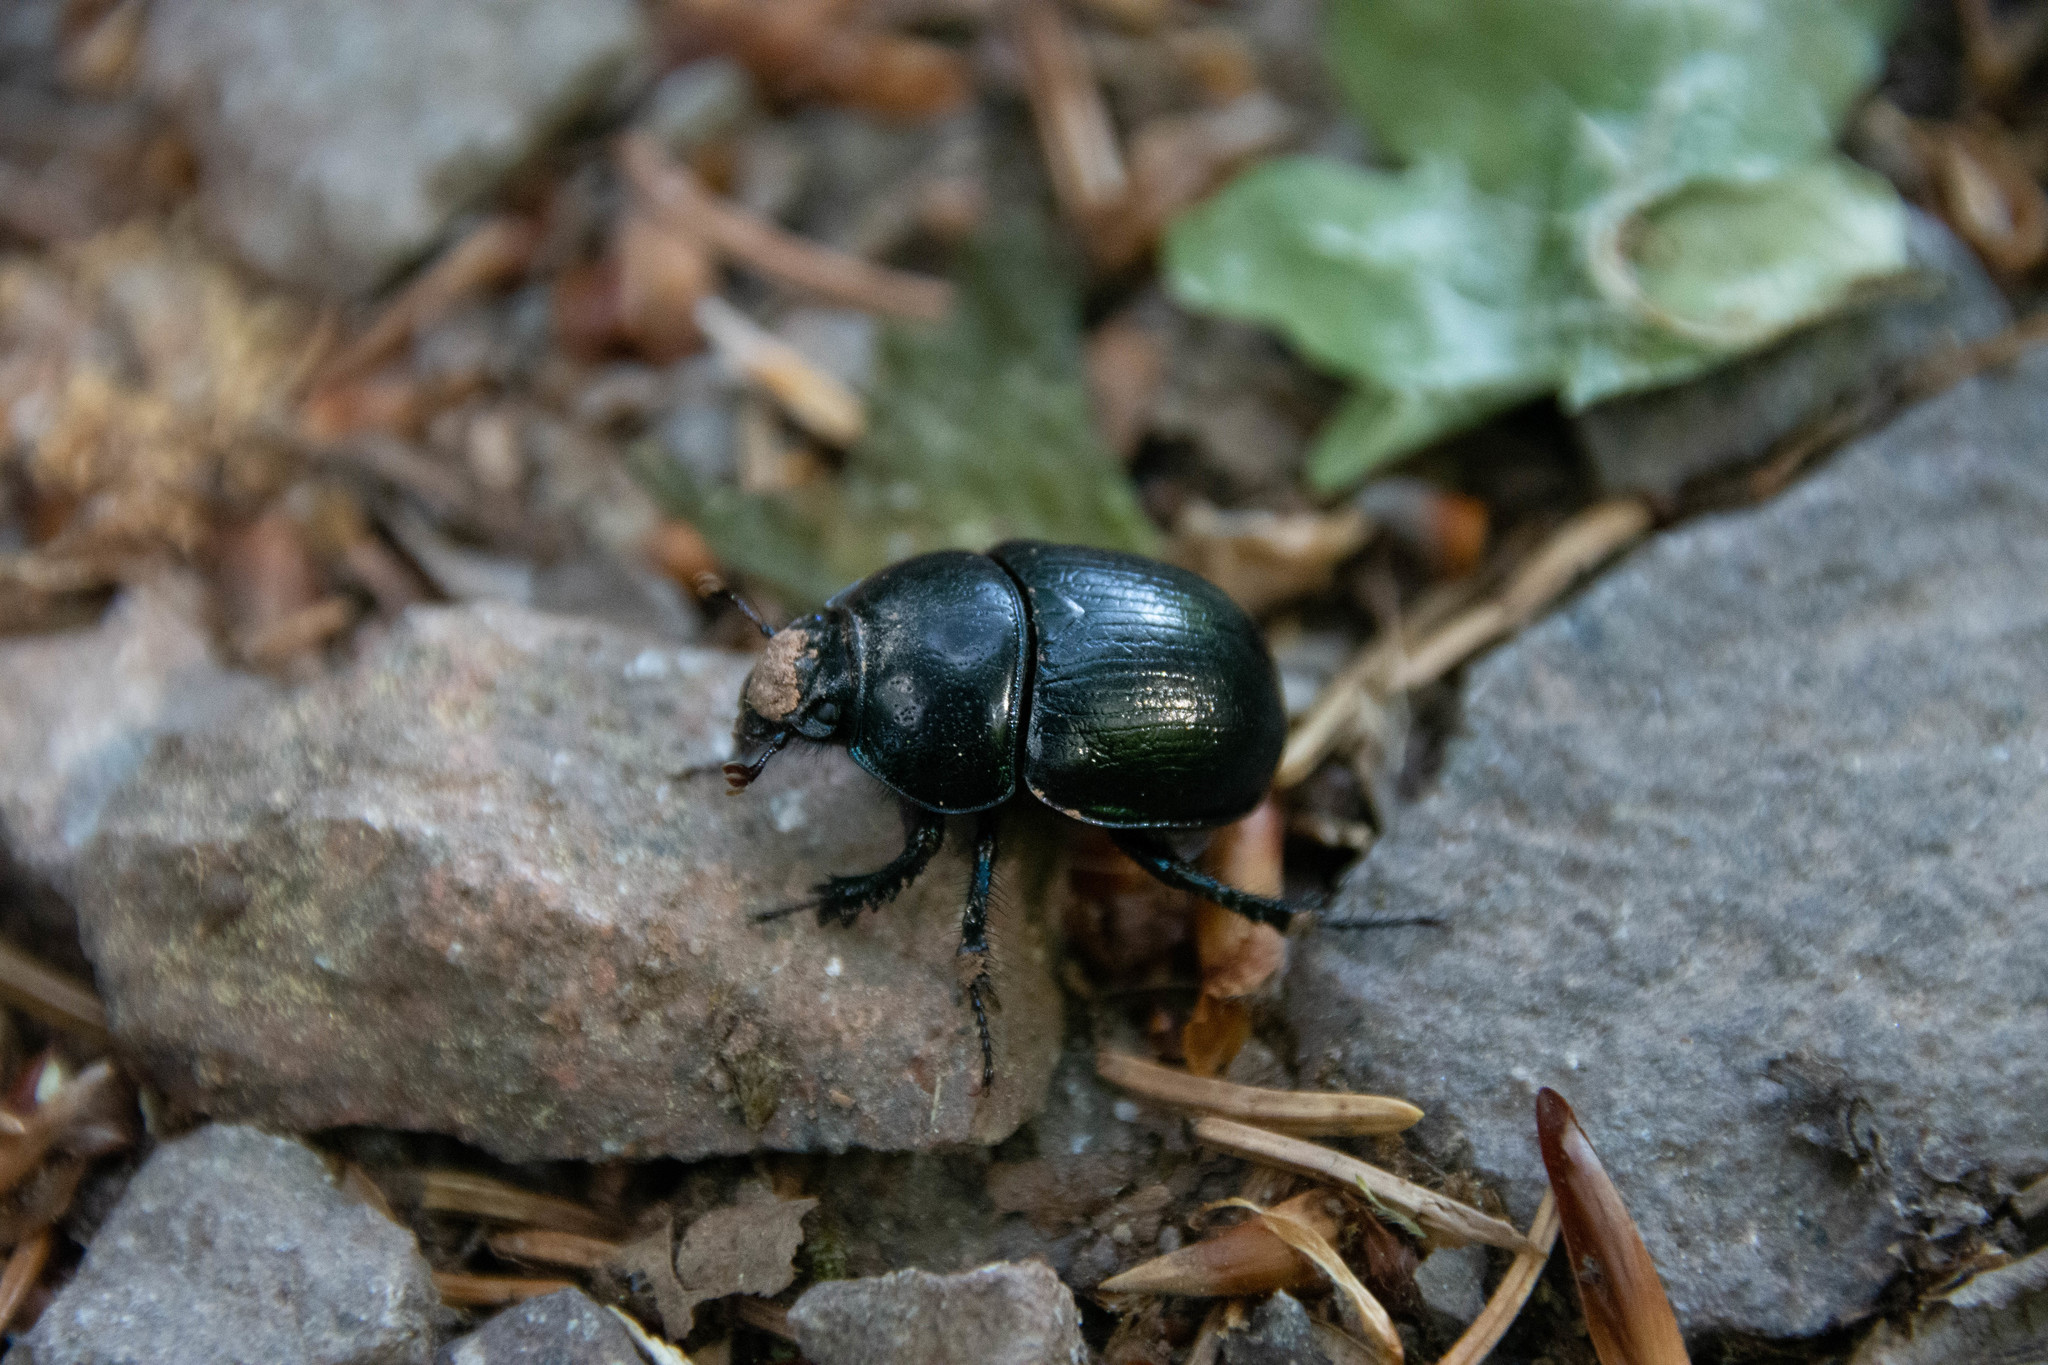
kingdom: Animalia
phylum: Arthropoda
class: Insecta
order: Coleoptera
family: Geotrupidae
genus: Anoplotrupes
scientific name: Anoplotrupes stercorosus
